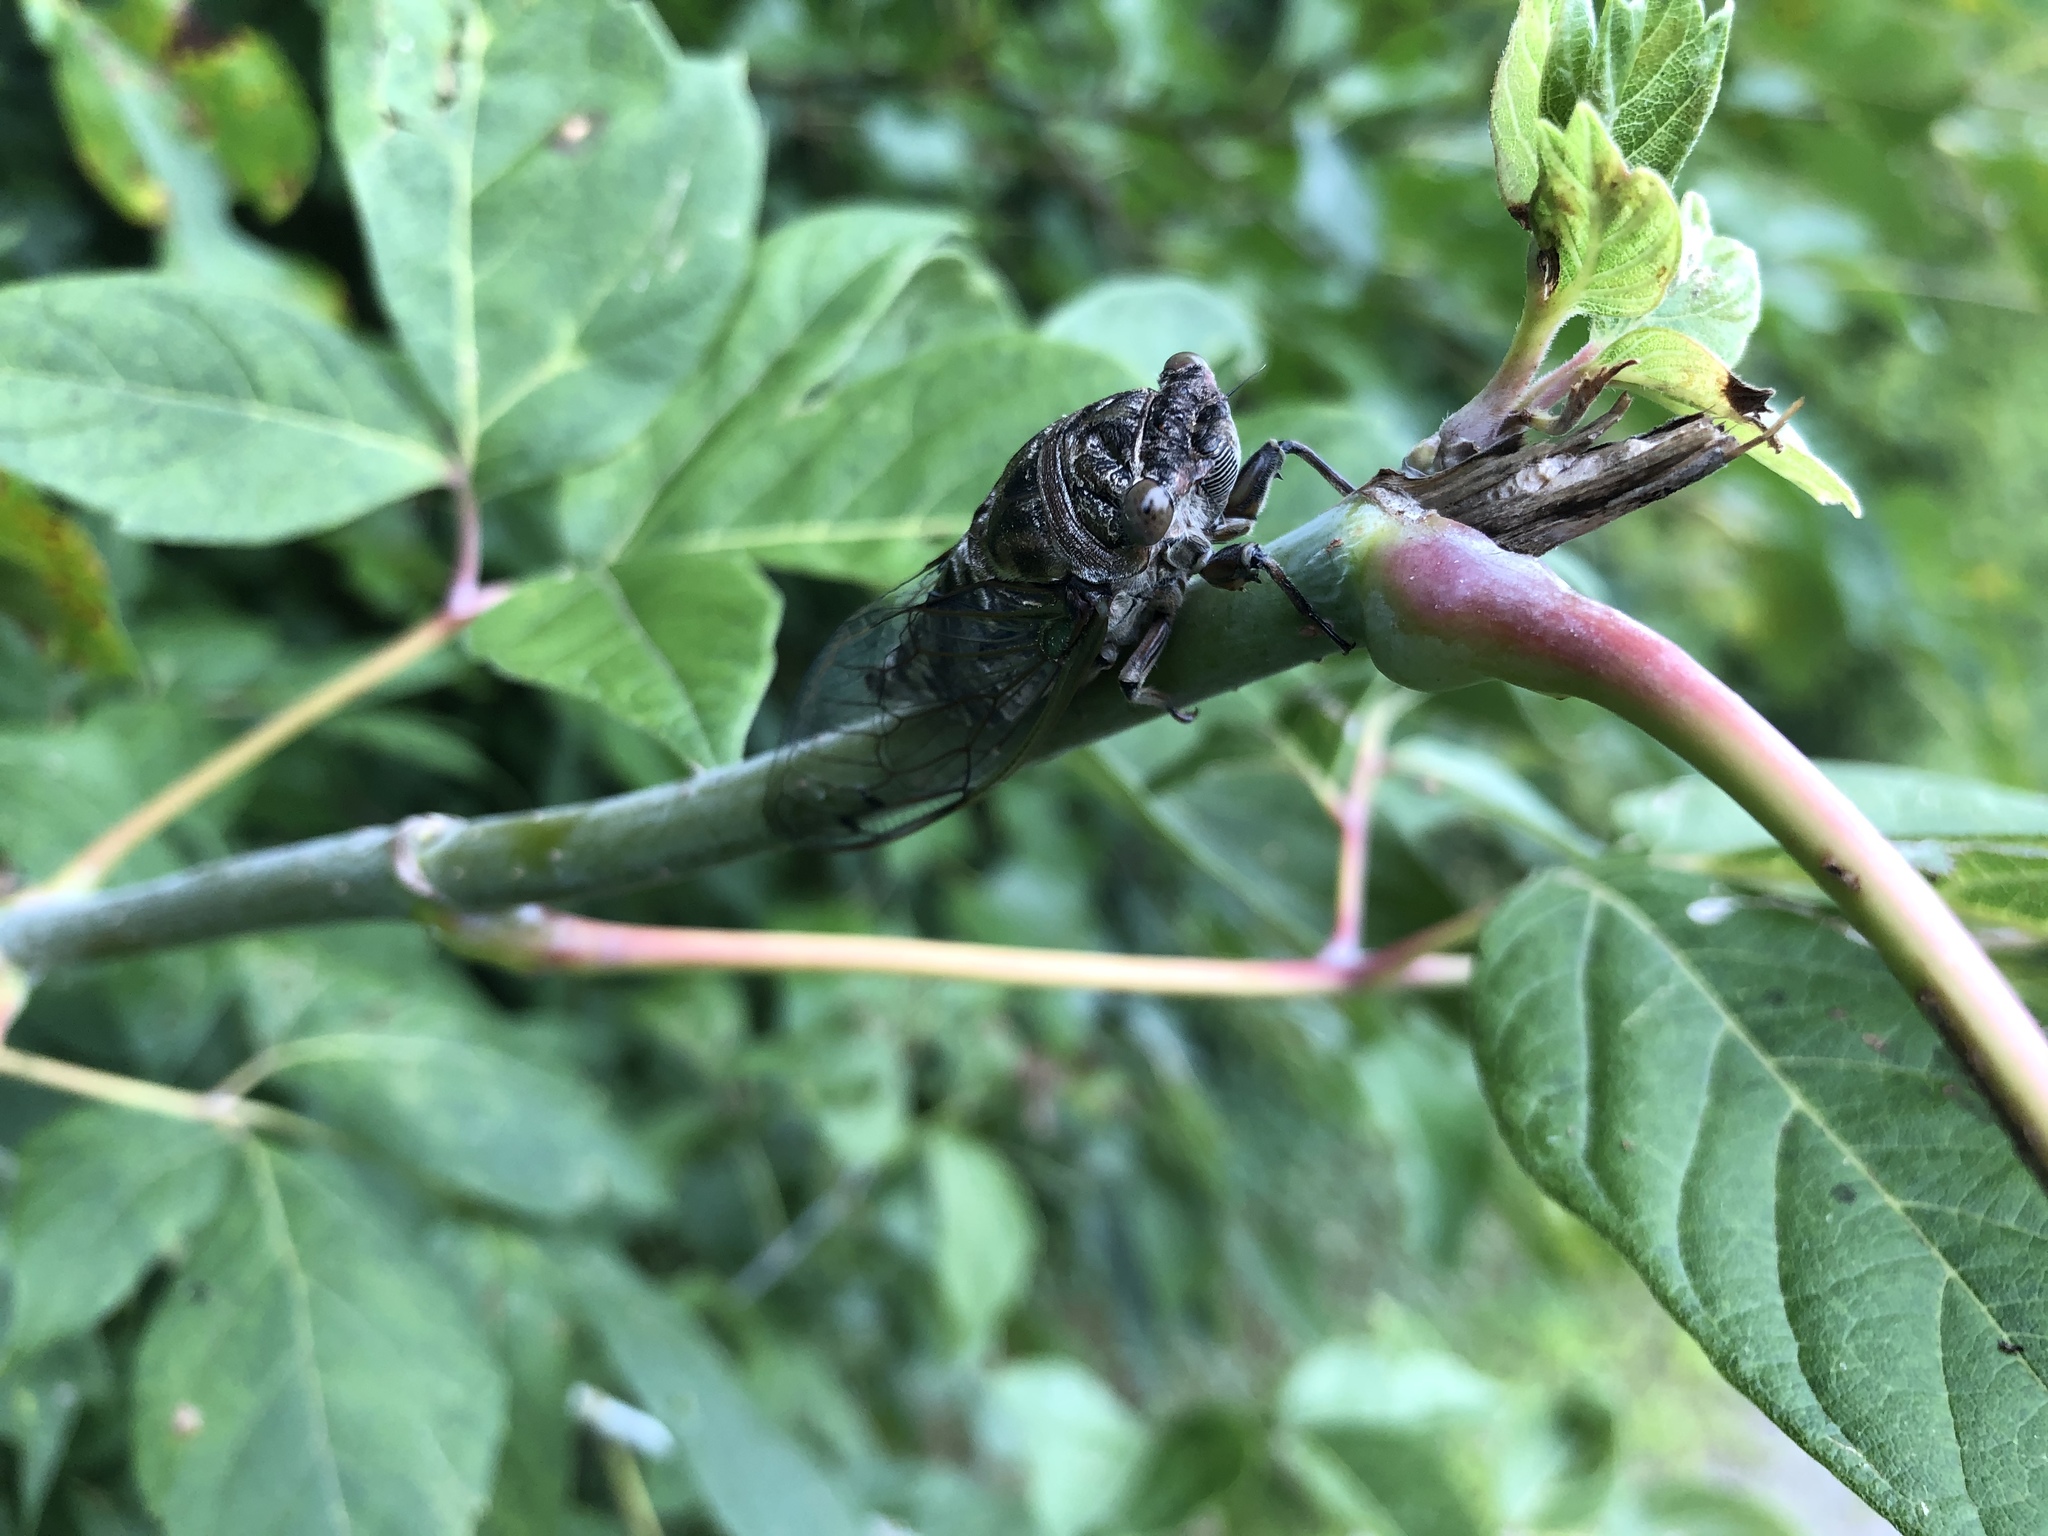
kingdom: Animalia
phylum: Arthropoda
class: Insecta
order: Hemiptera
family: Cicadidae
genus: Neotibicen
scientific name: Neotibicen canicularis
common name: God-day cicada
